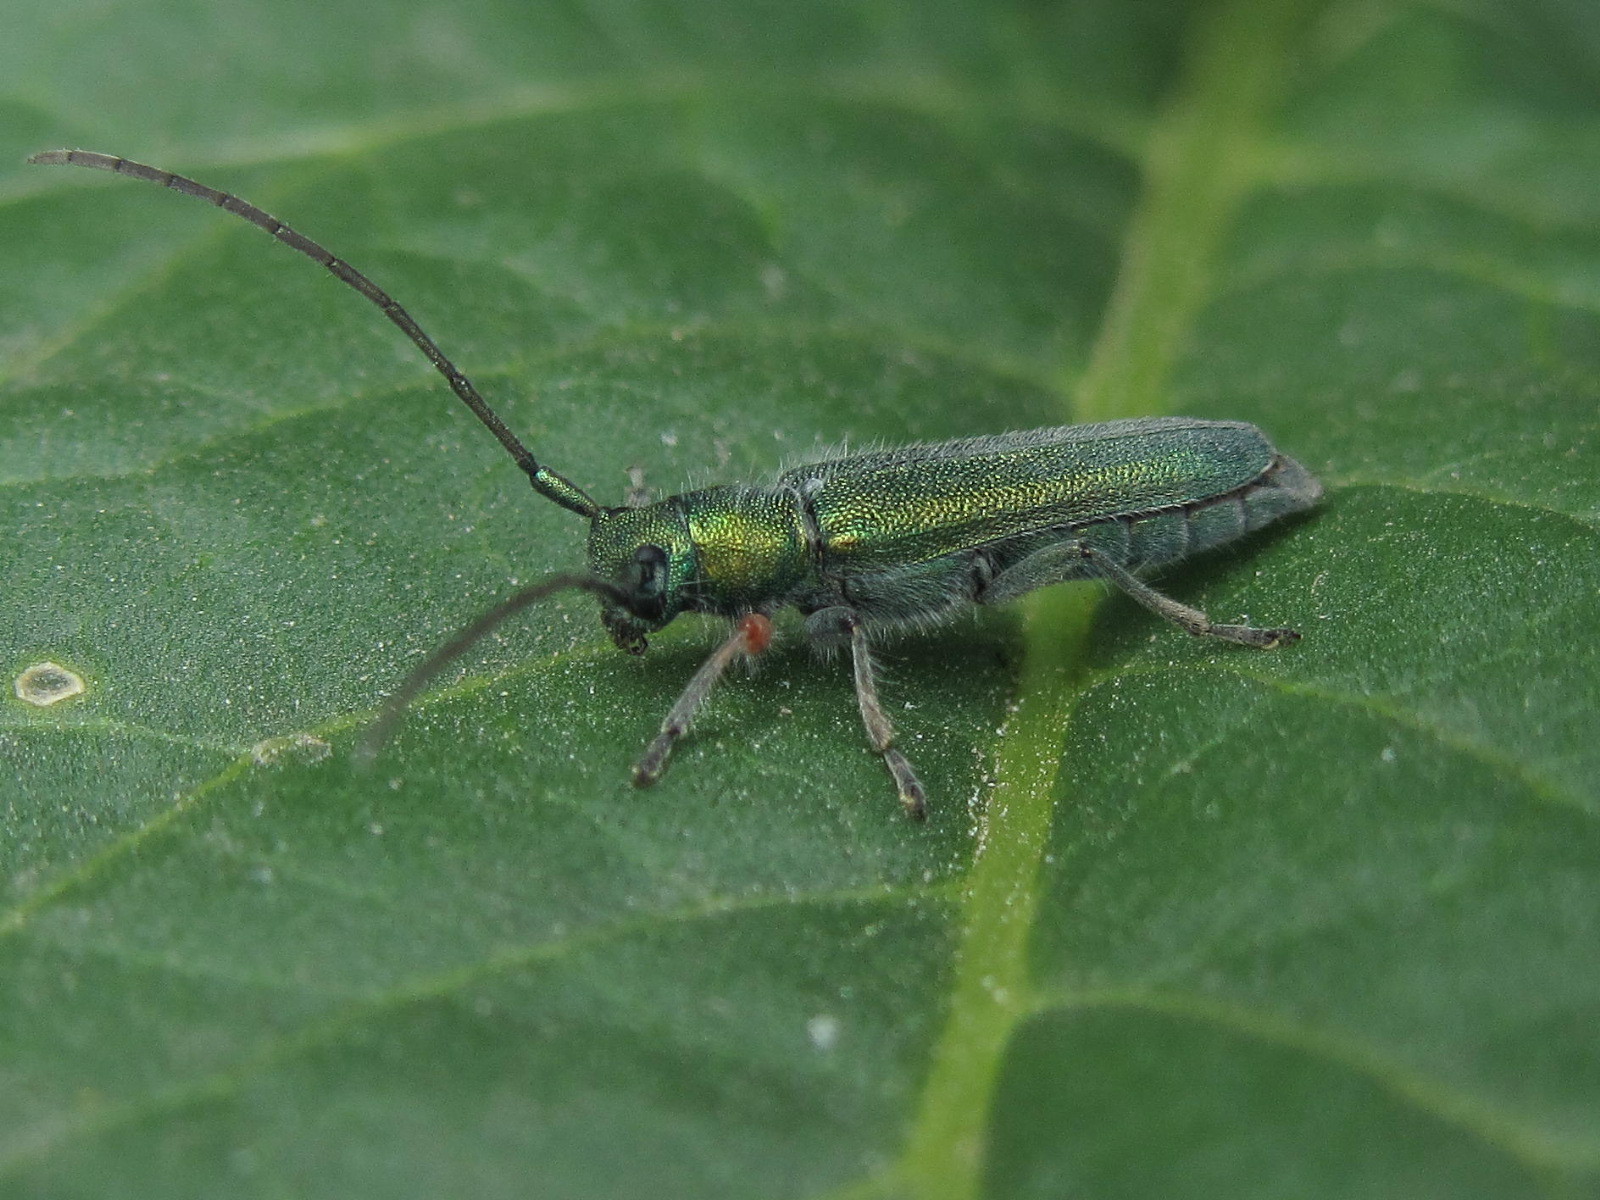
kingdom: Animalia
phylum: Arthropoda
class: Insecta
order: Coleoptera
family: Cerambycidae
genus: Phytoecia
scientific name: Phytoecia caerulea
